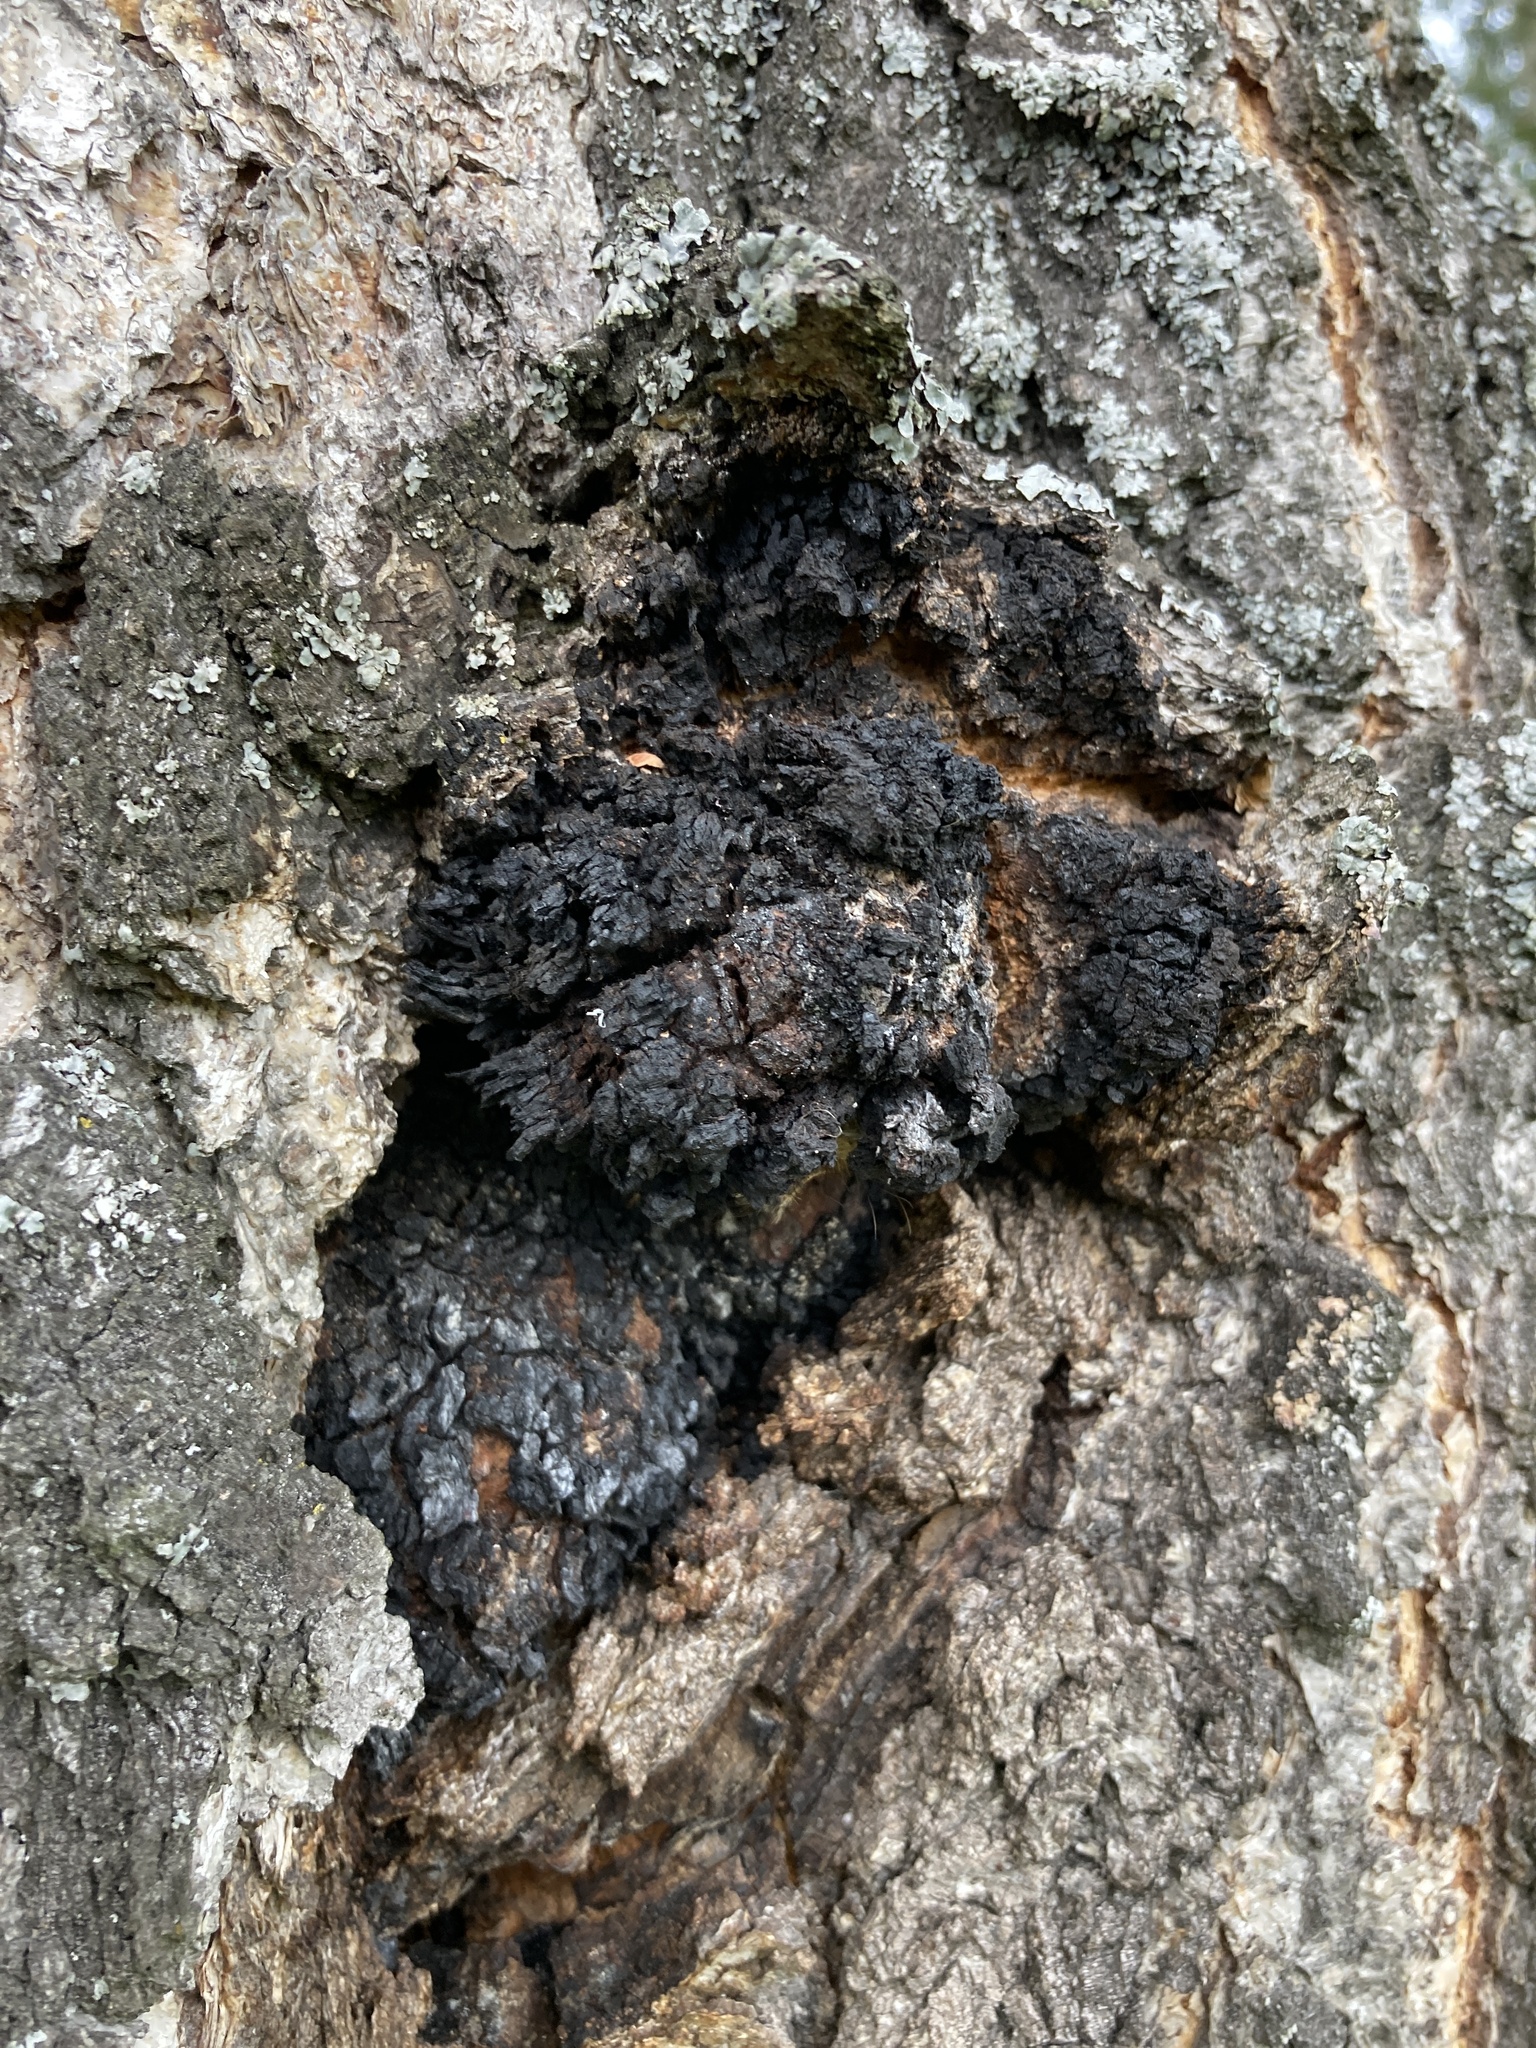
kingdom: Fungi
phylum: Basidiomycota
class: Agaricomycetes
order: Hymenochaetales
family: Hymenochaetaceae
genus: Inonotus
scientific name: Inonotus obliquus
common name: Chaga
